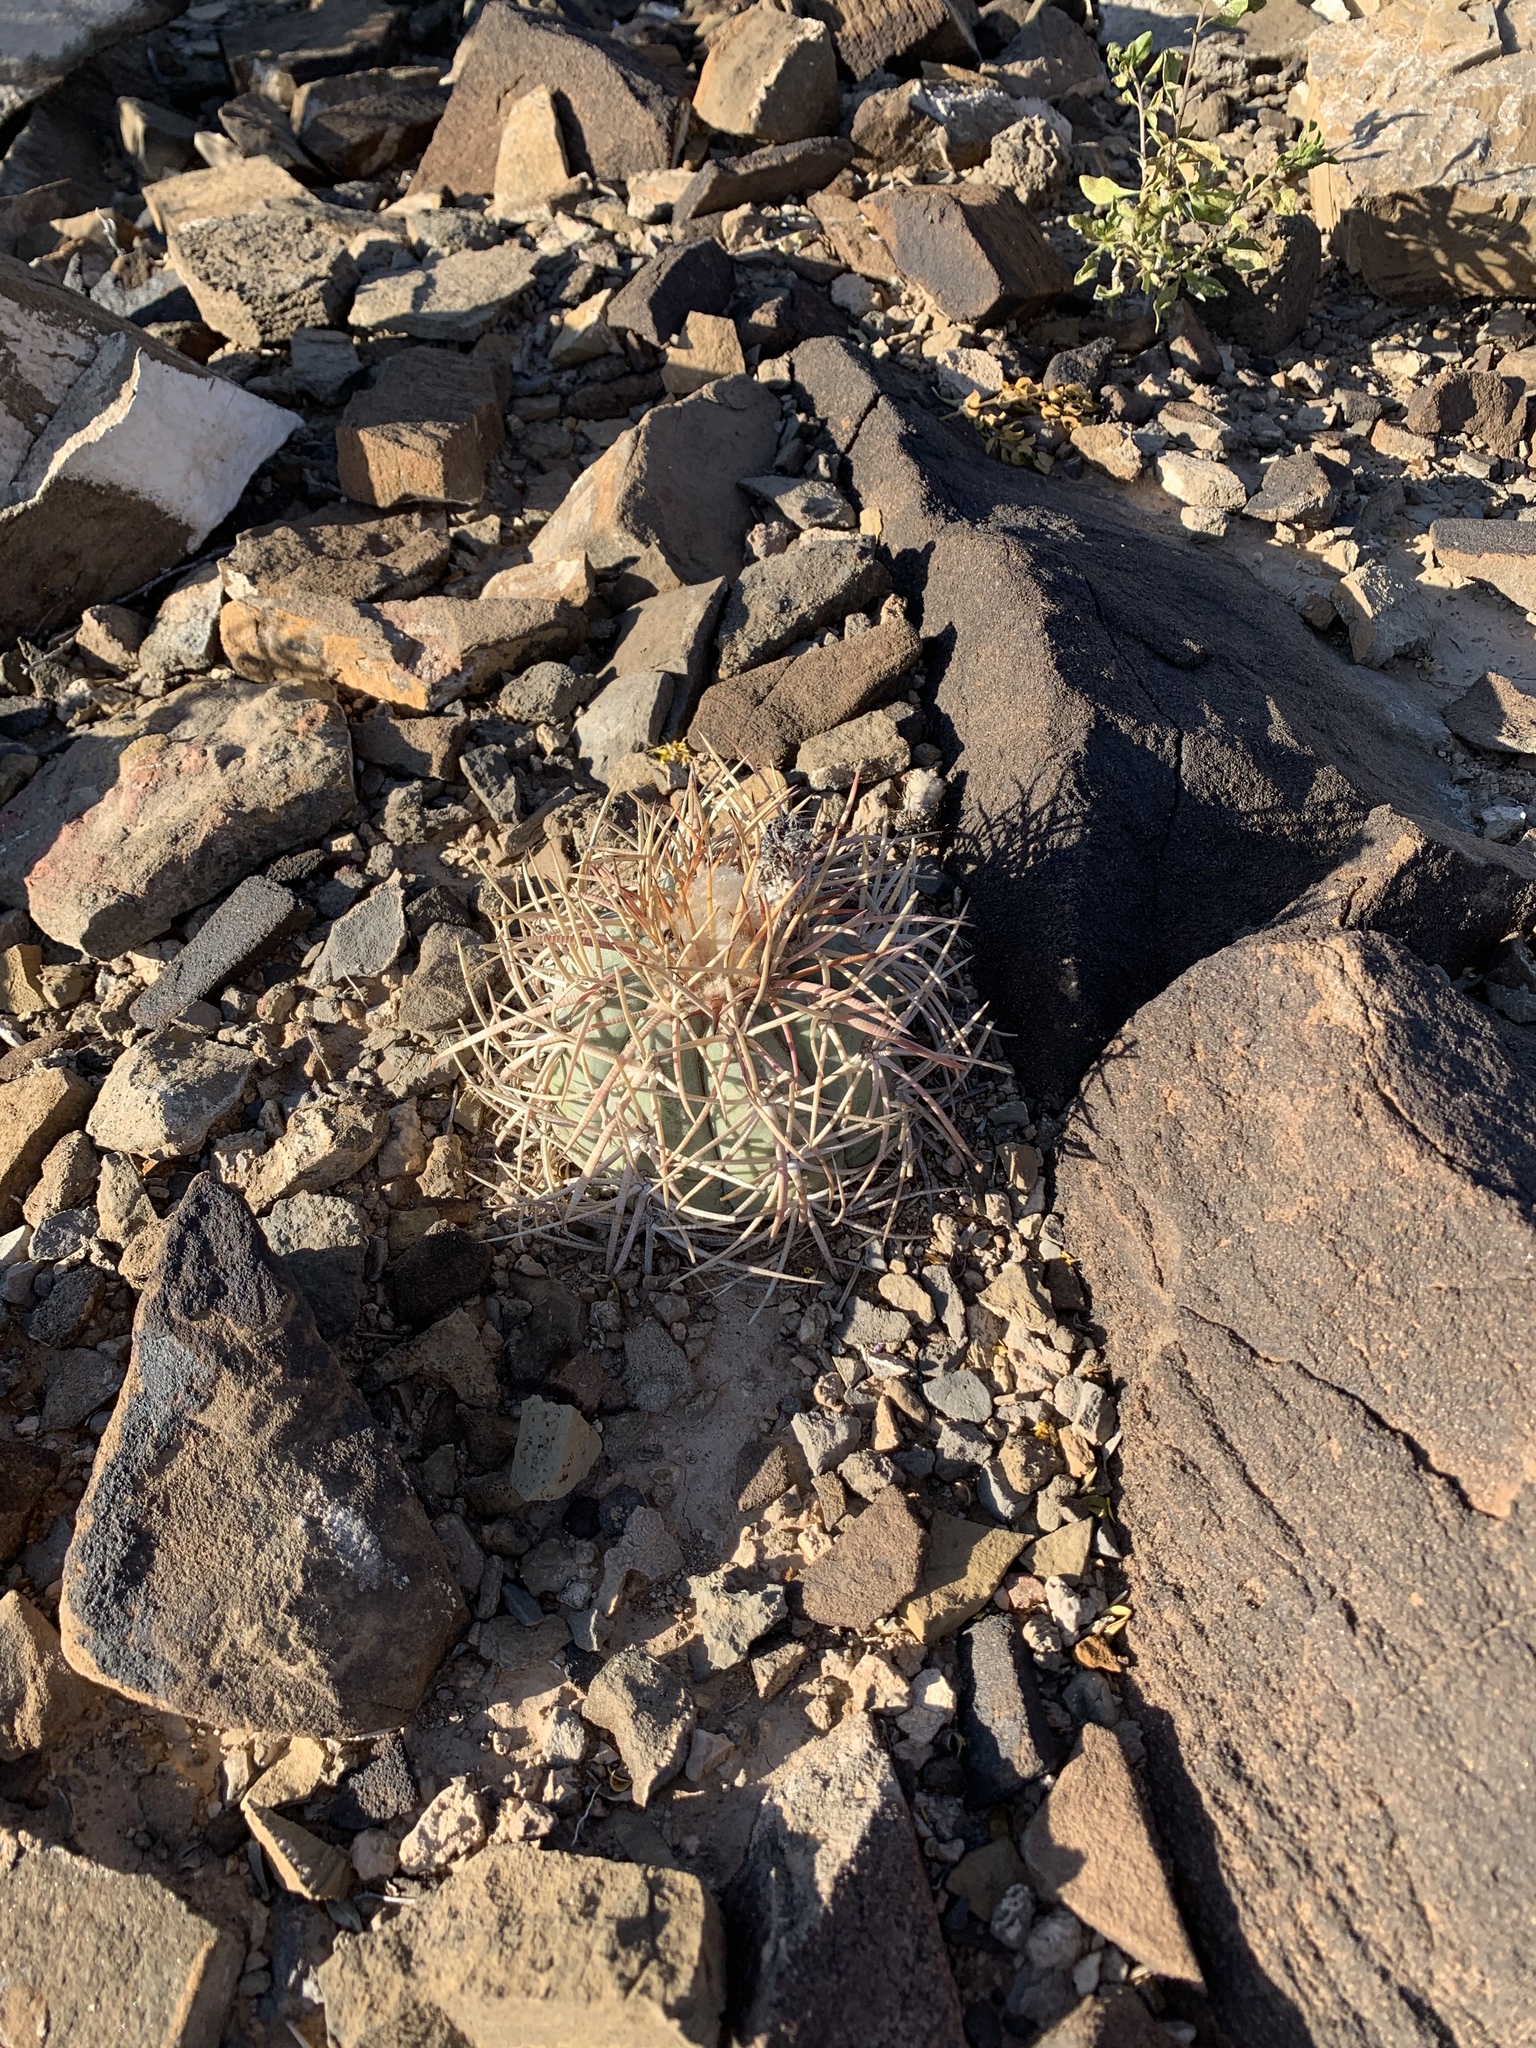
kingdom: Plantae
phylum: Tracheophyta
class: Magnoliopsida
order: Caryophyllales
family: Cactaceae
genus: Echinocactus
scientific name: Echinocactus horizonthalonius
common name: Devilshead
